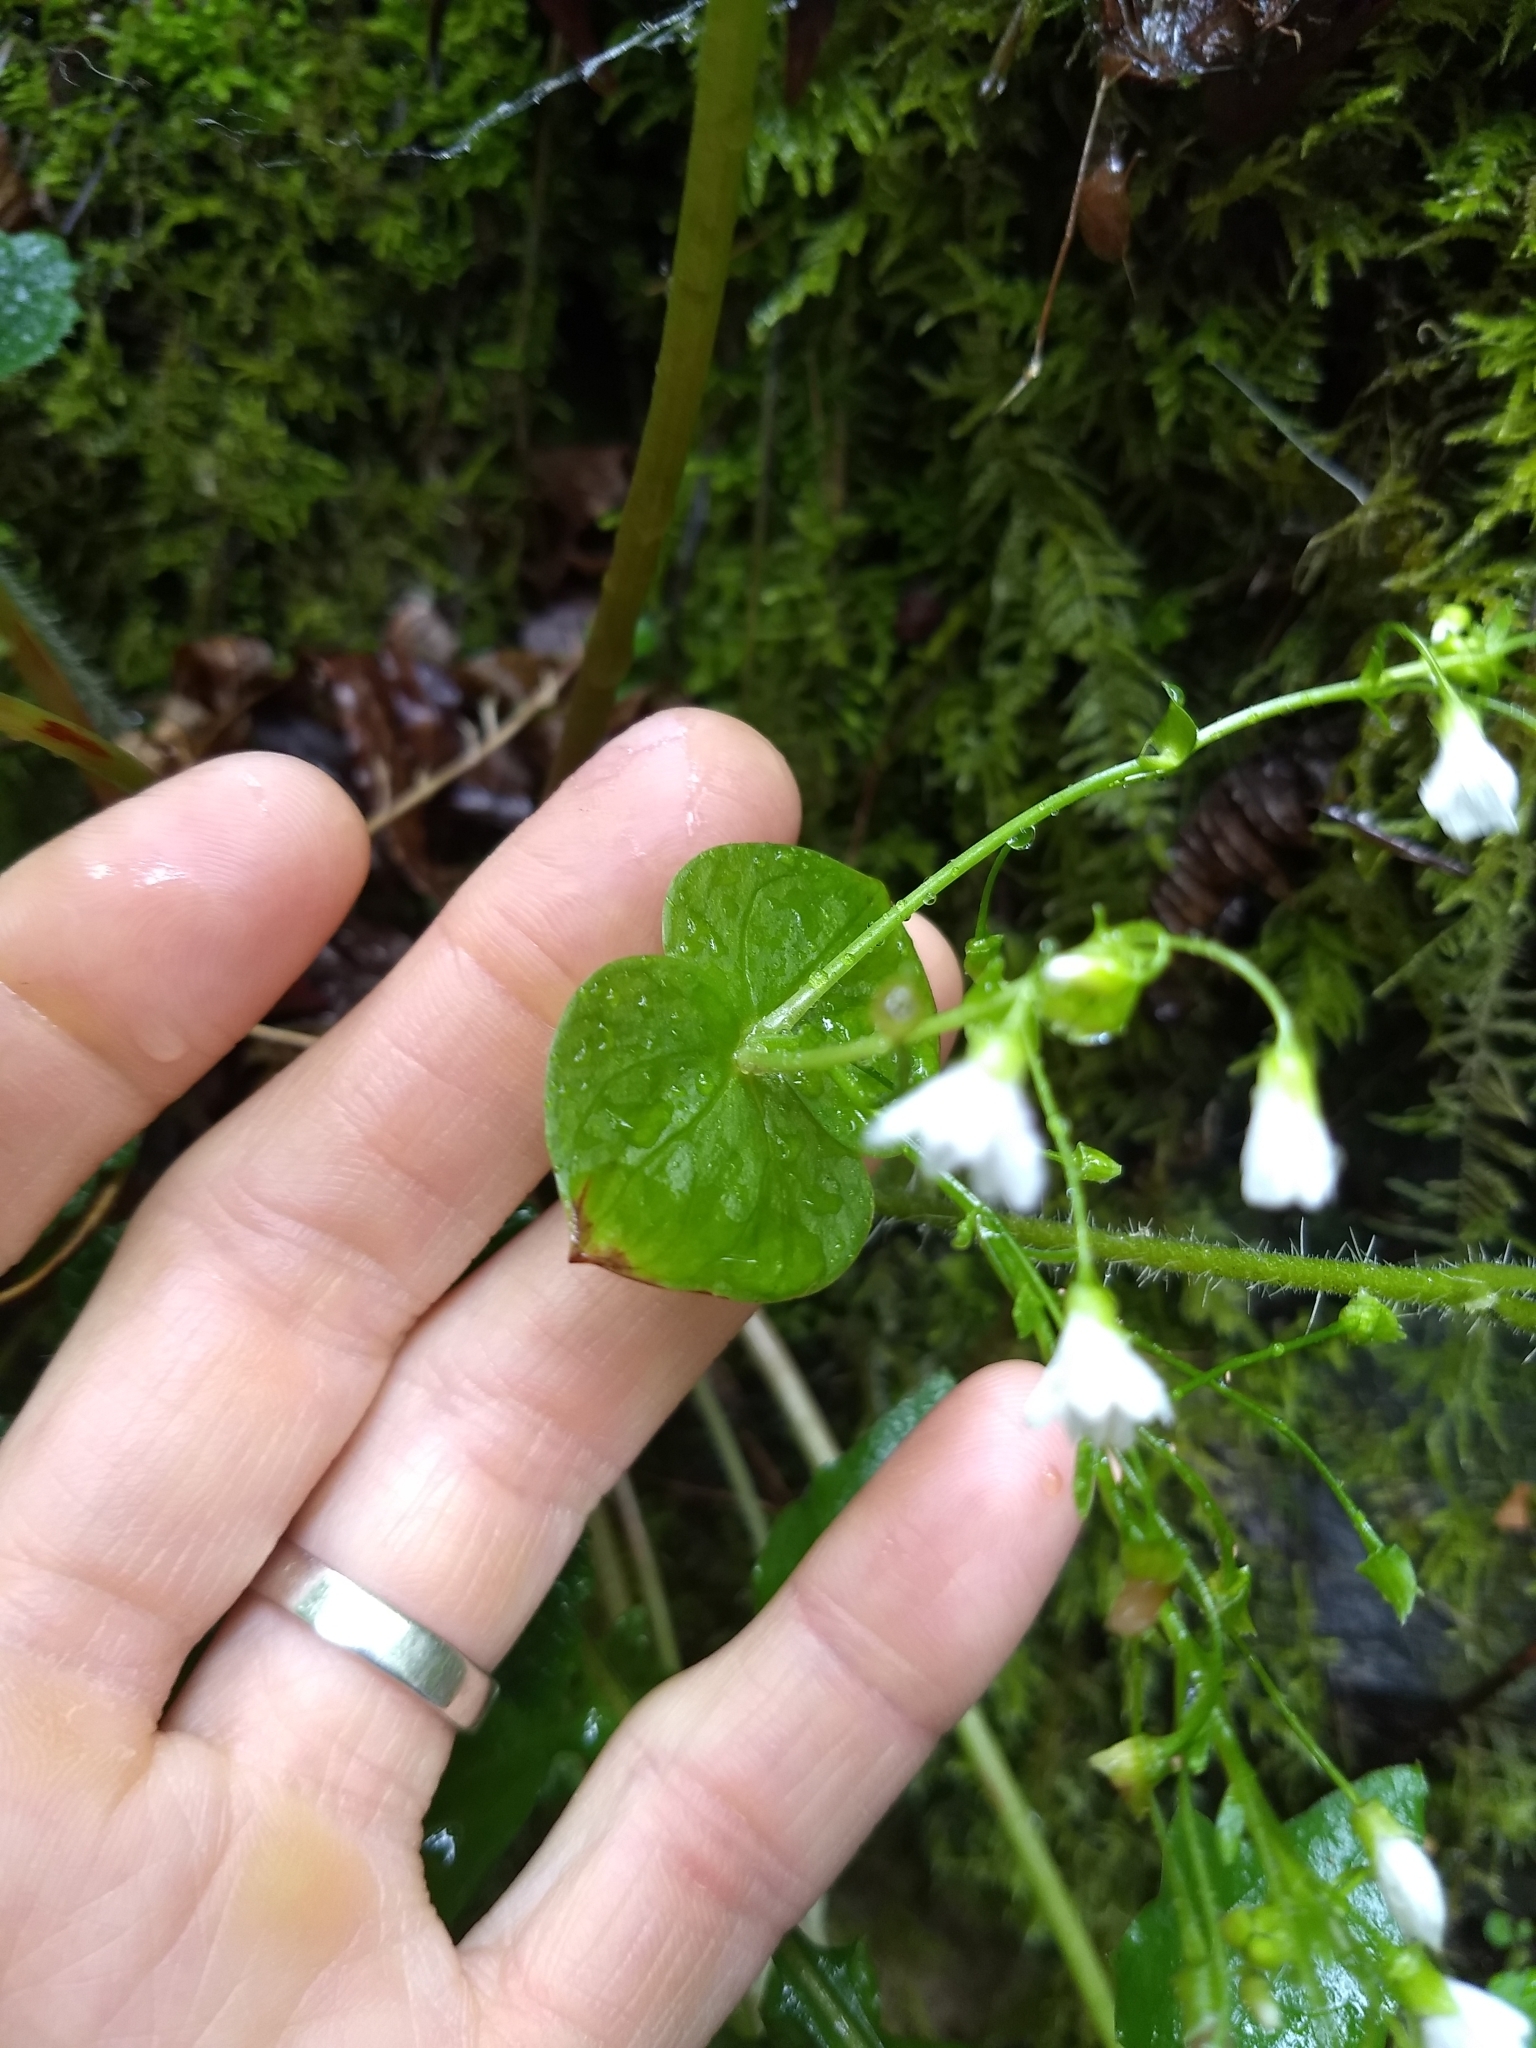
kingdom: Plantae
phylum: Tracheophyta
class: Magnoliopsida
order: Caryophyllales
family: Montiaceae
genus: Claytonia
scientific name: Claytonia sibirica
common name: Pink purslane
